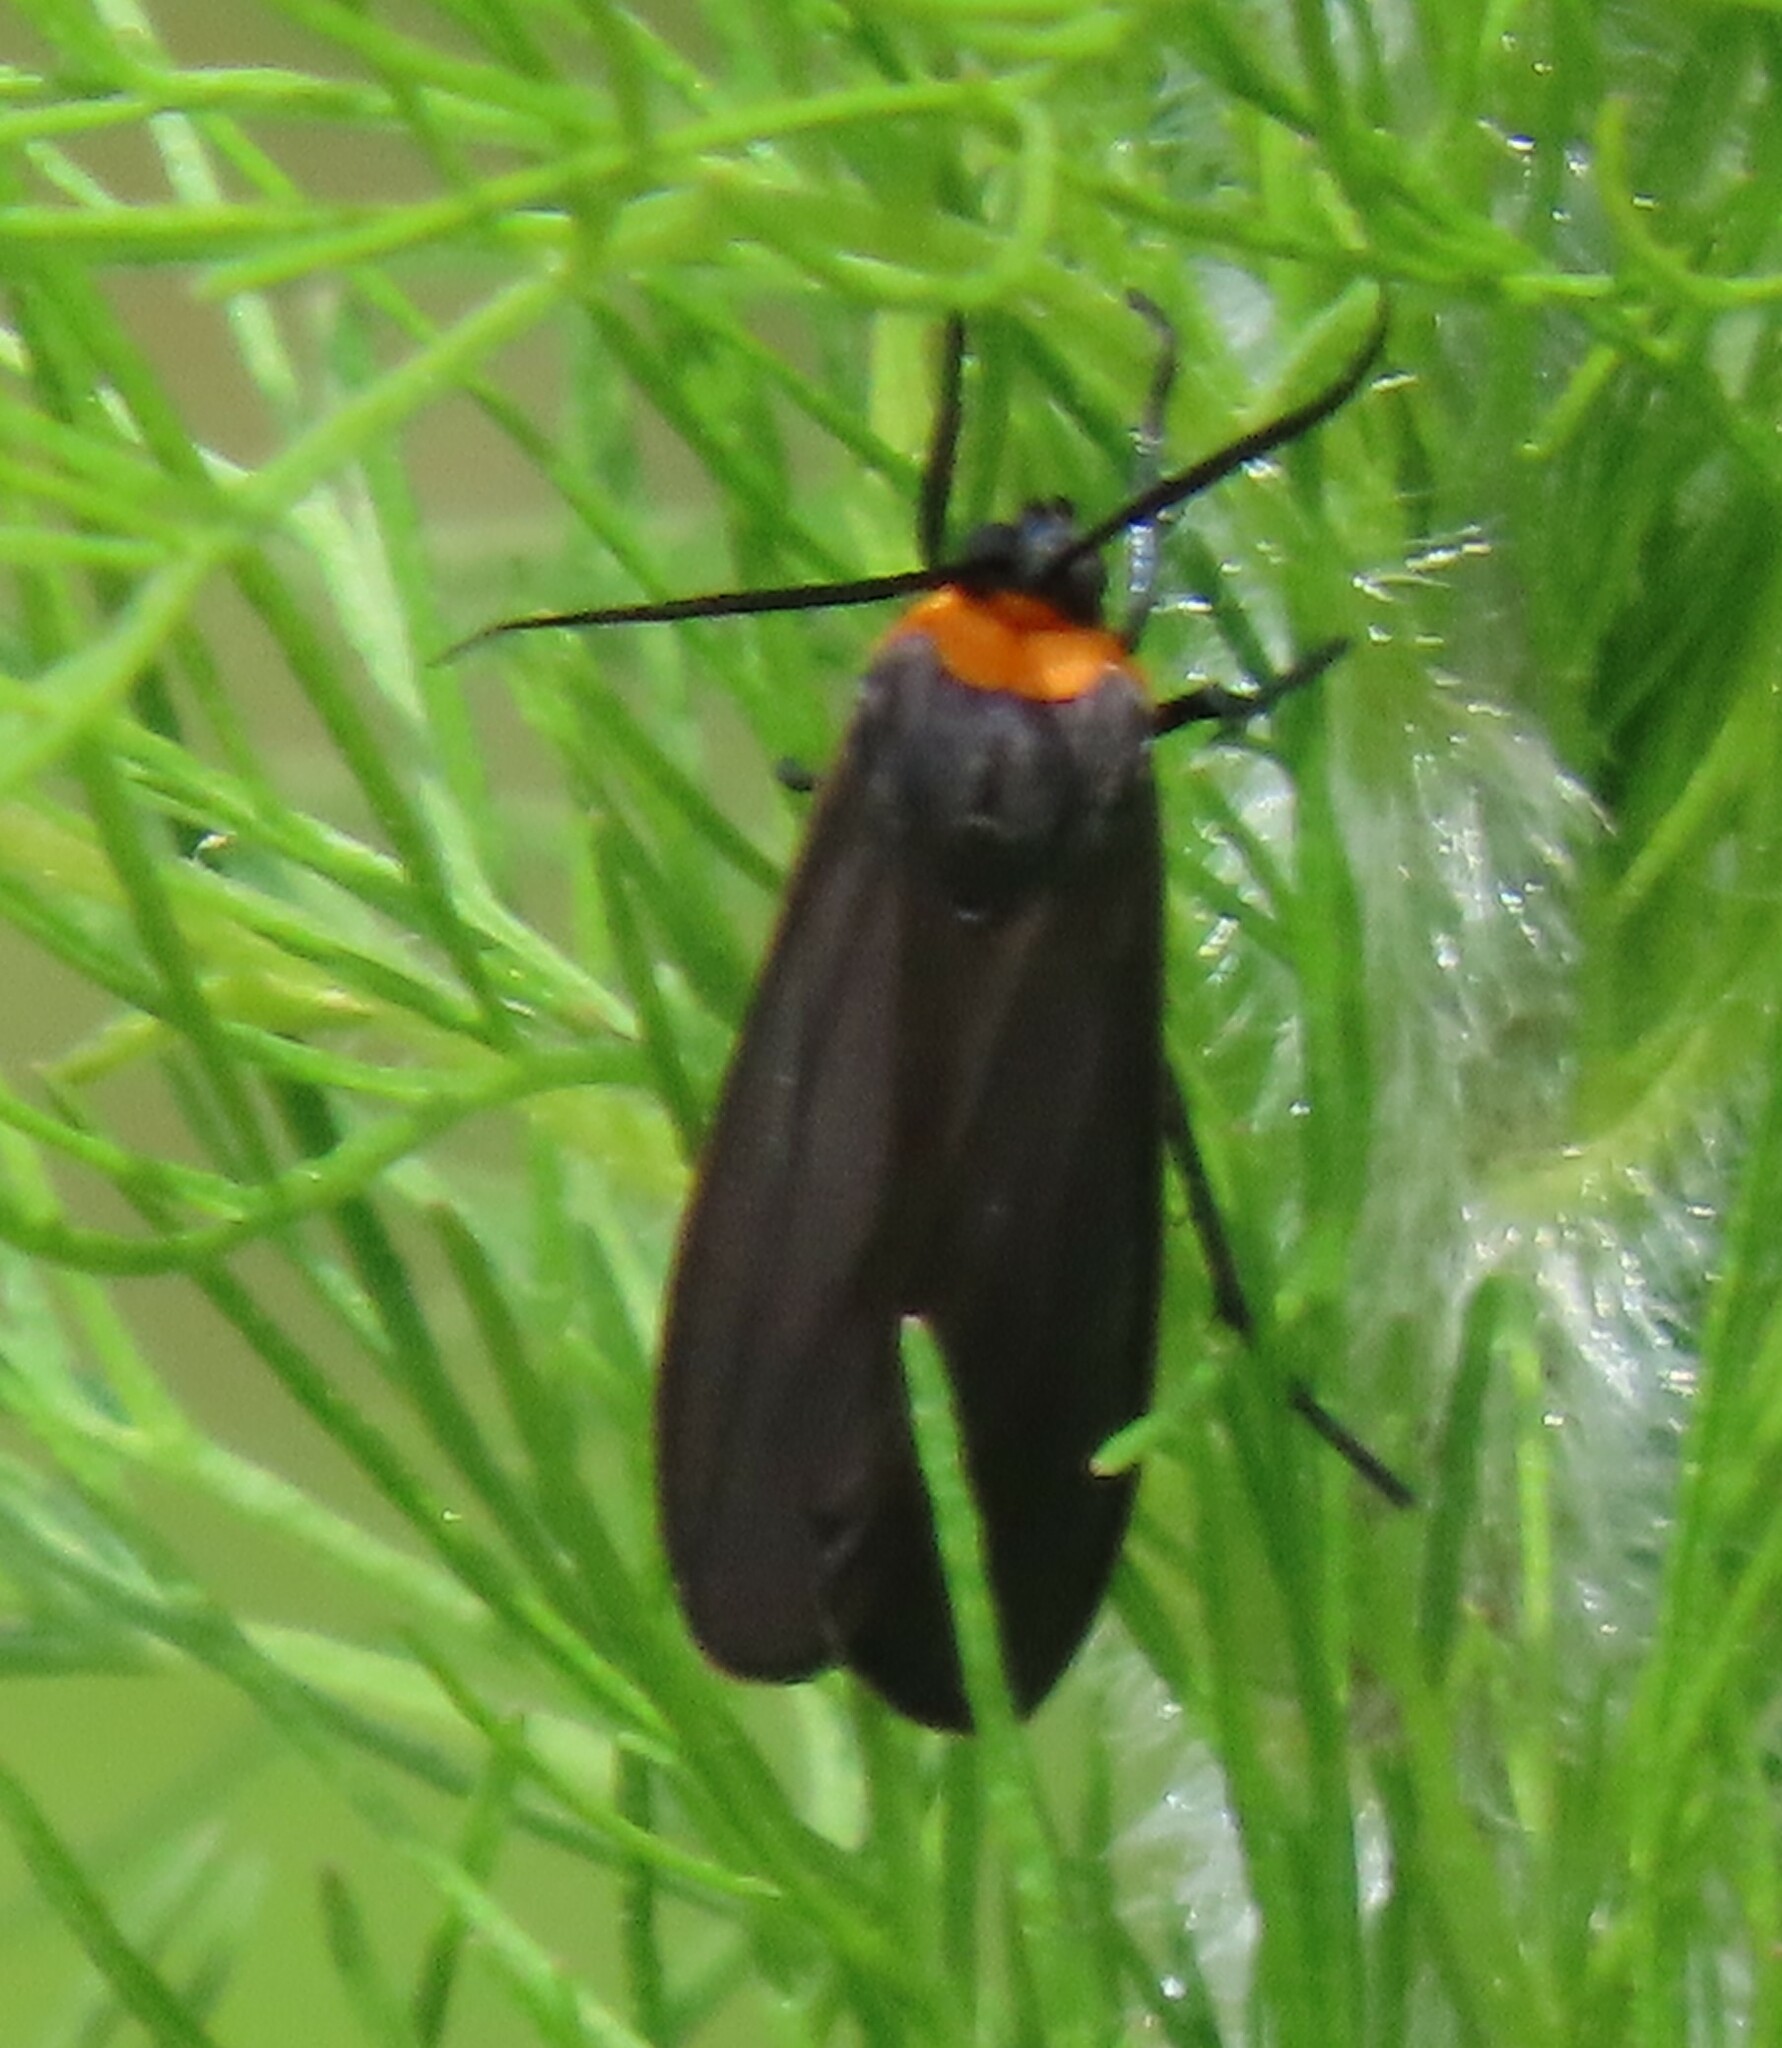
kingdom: Animalia
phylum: Arthropoda
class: Insecta
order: Lepidoptera
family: Erebidae
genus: Cisseps
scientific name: Cisseps fulvicollis
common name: Yellow-collared scape moth
